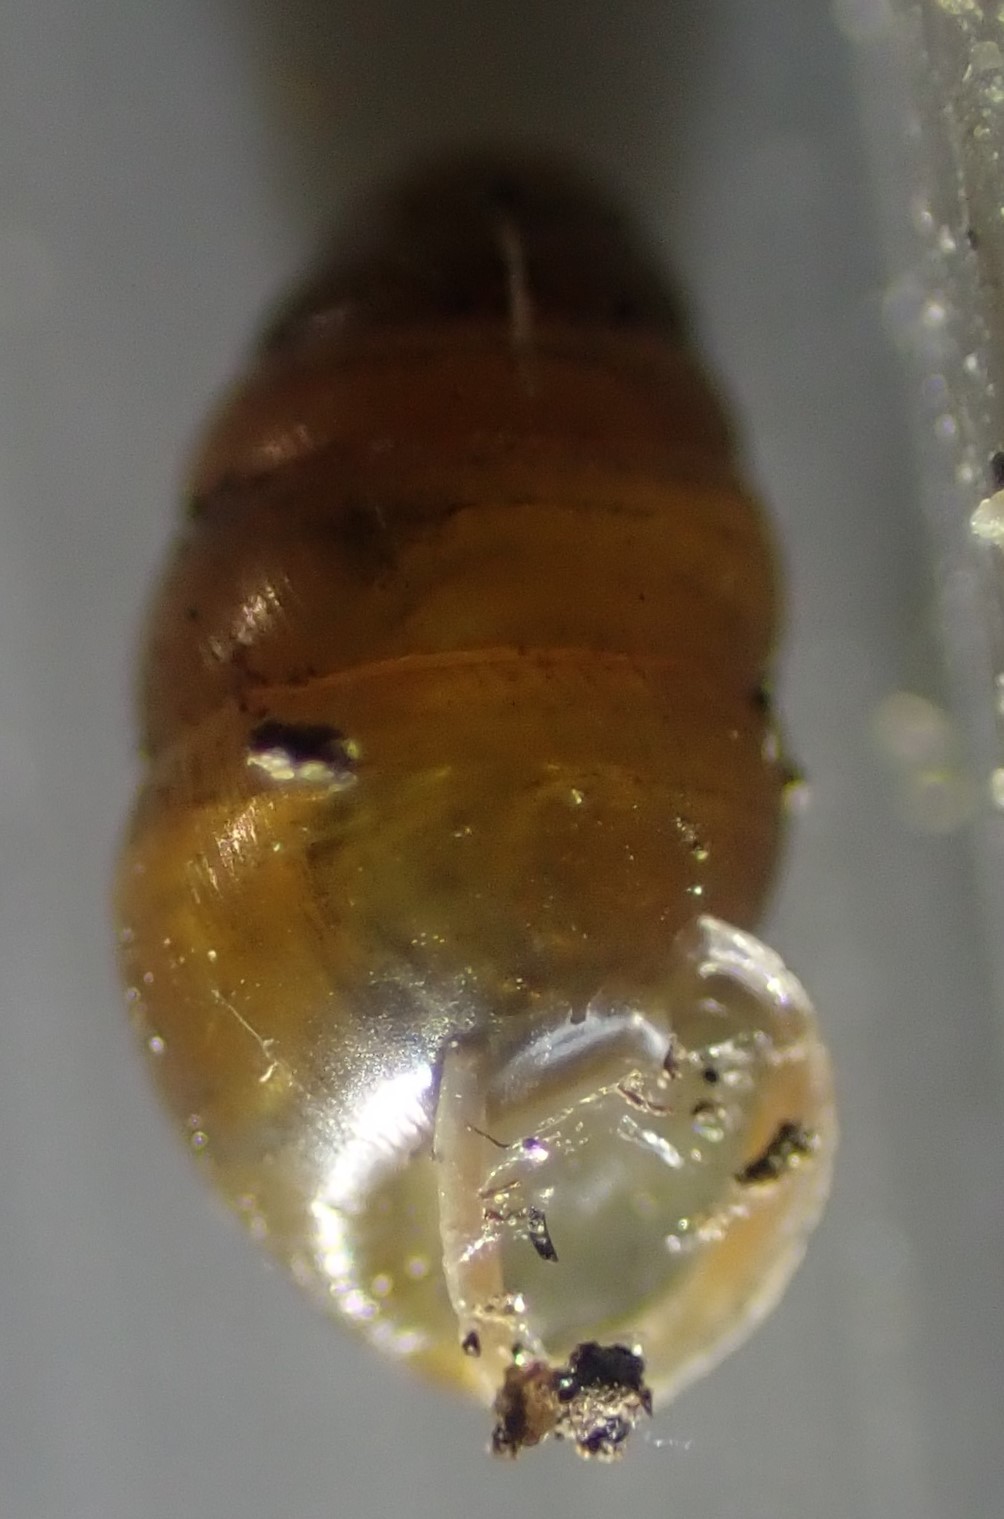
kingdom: Animalia
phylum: Mollusca
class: Gastropoda
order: Stylommatophora
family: Lauriidae
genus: Lauria
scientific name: Lauria cylindracea
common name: Common chrysalis snail
